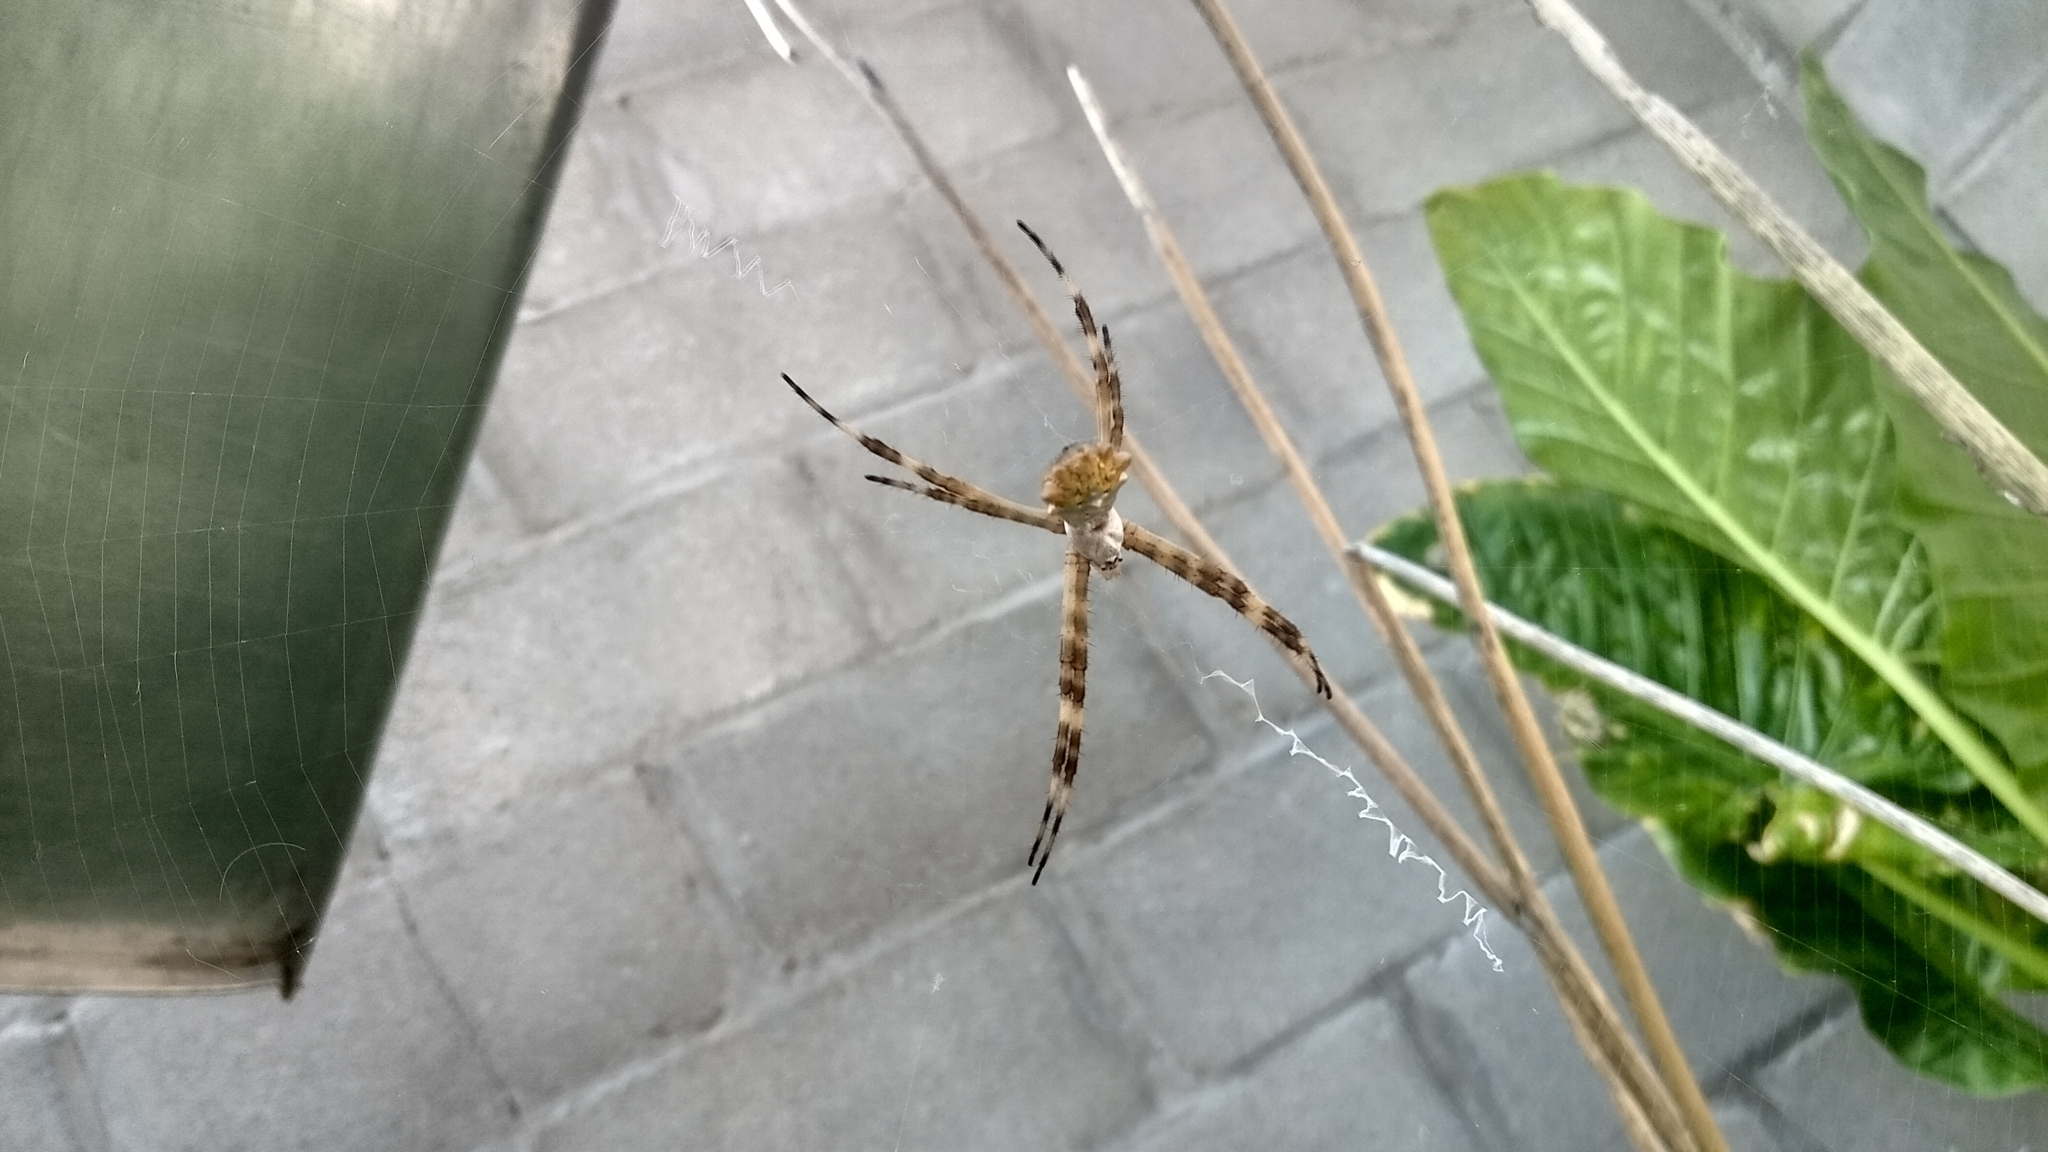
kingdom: Animalia
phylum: Arthropoda
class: Arachnida
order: Araneae
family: Araneidae
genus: Argiope
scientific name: Argiope argentata
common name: Orb weavers
